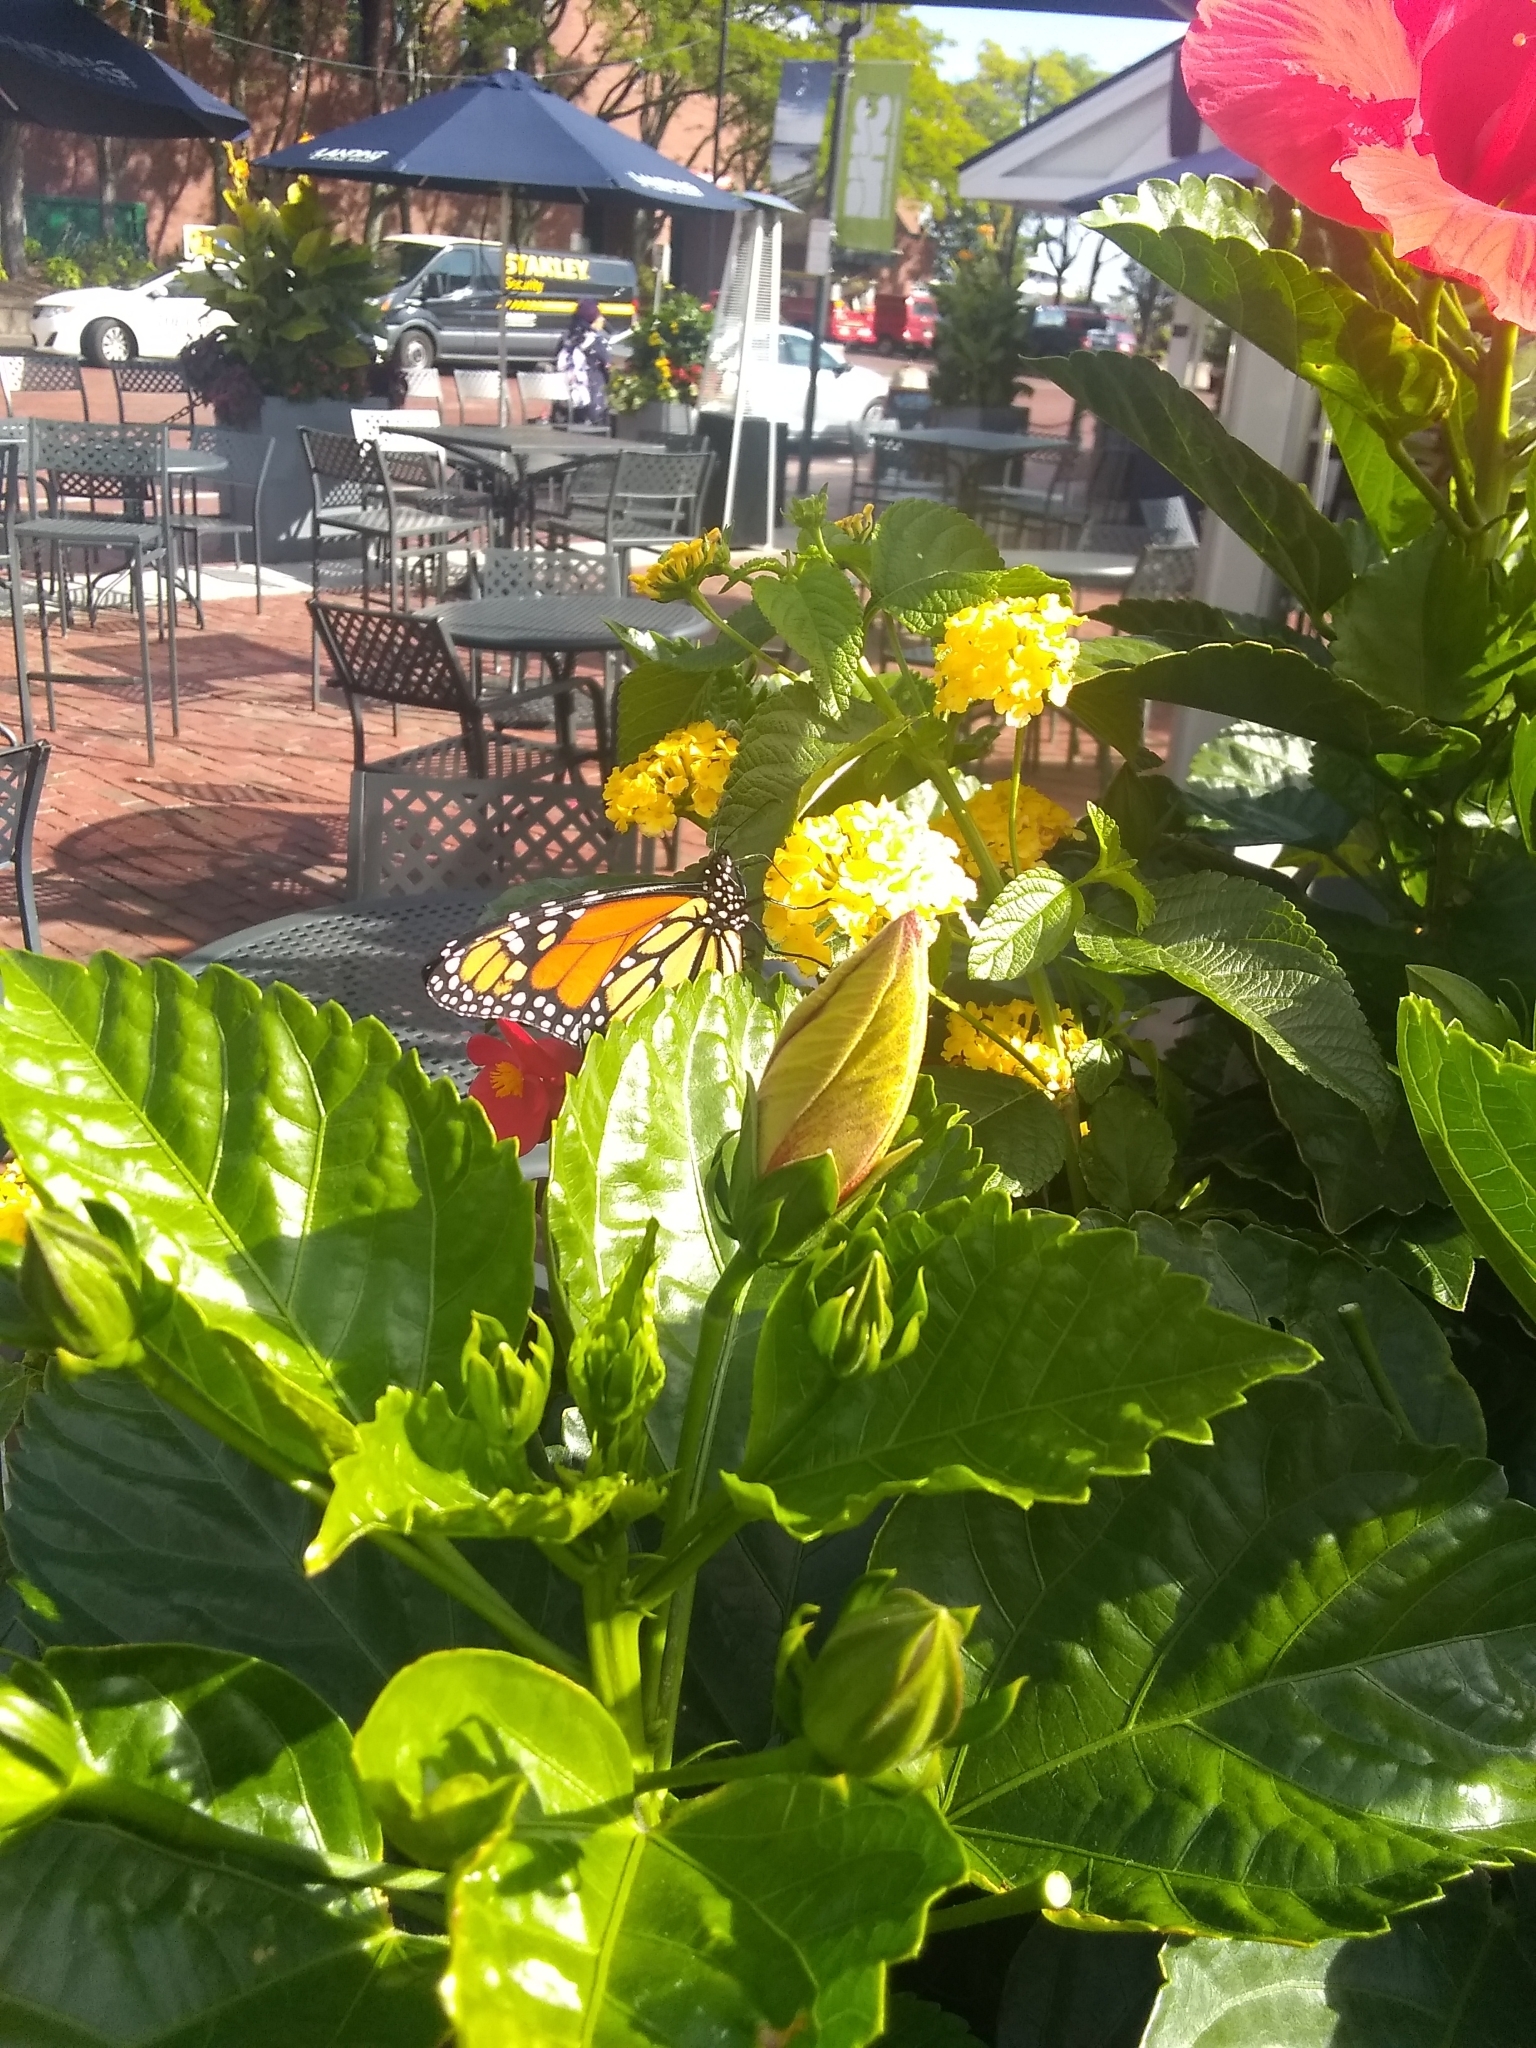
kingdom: Animalia
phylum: Arthropoda
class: Insecta
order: Lepidoptera
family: Nymphalidae
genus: Danaus
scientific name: Danaus plexippus
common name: Monarch
